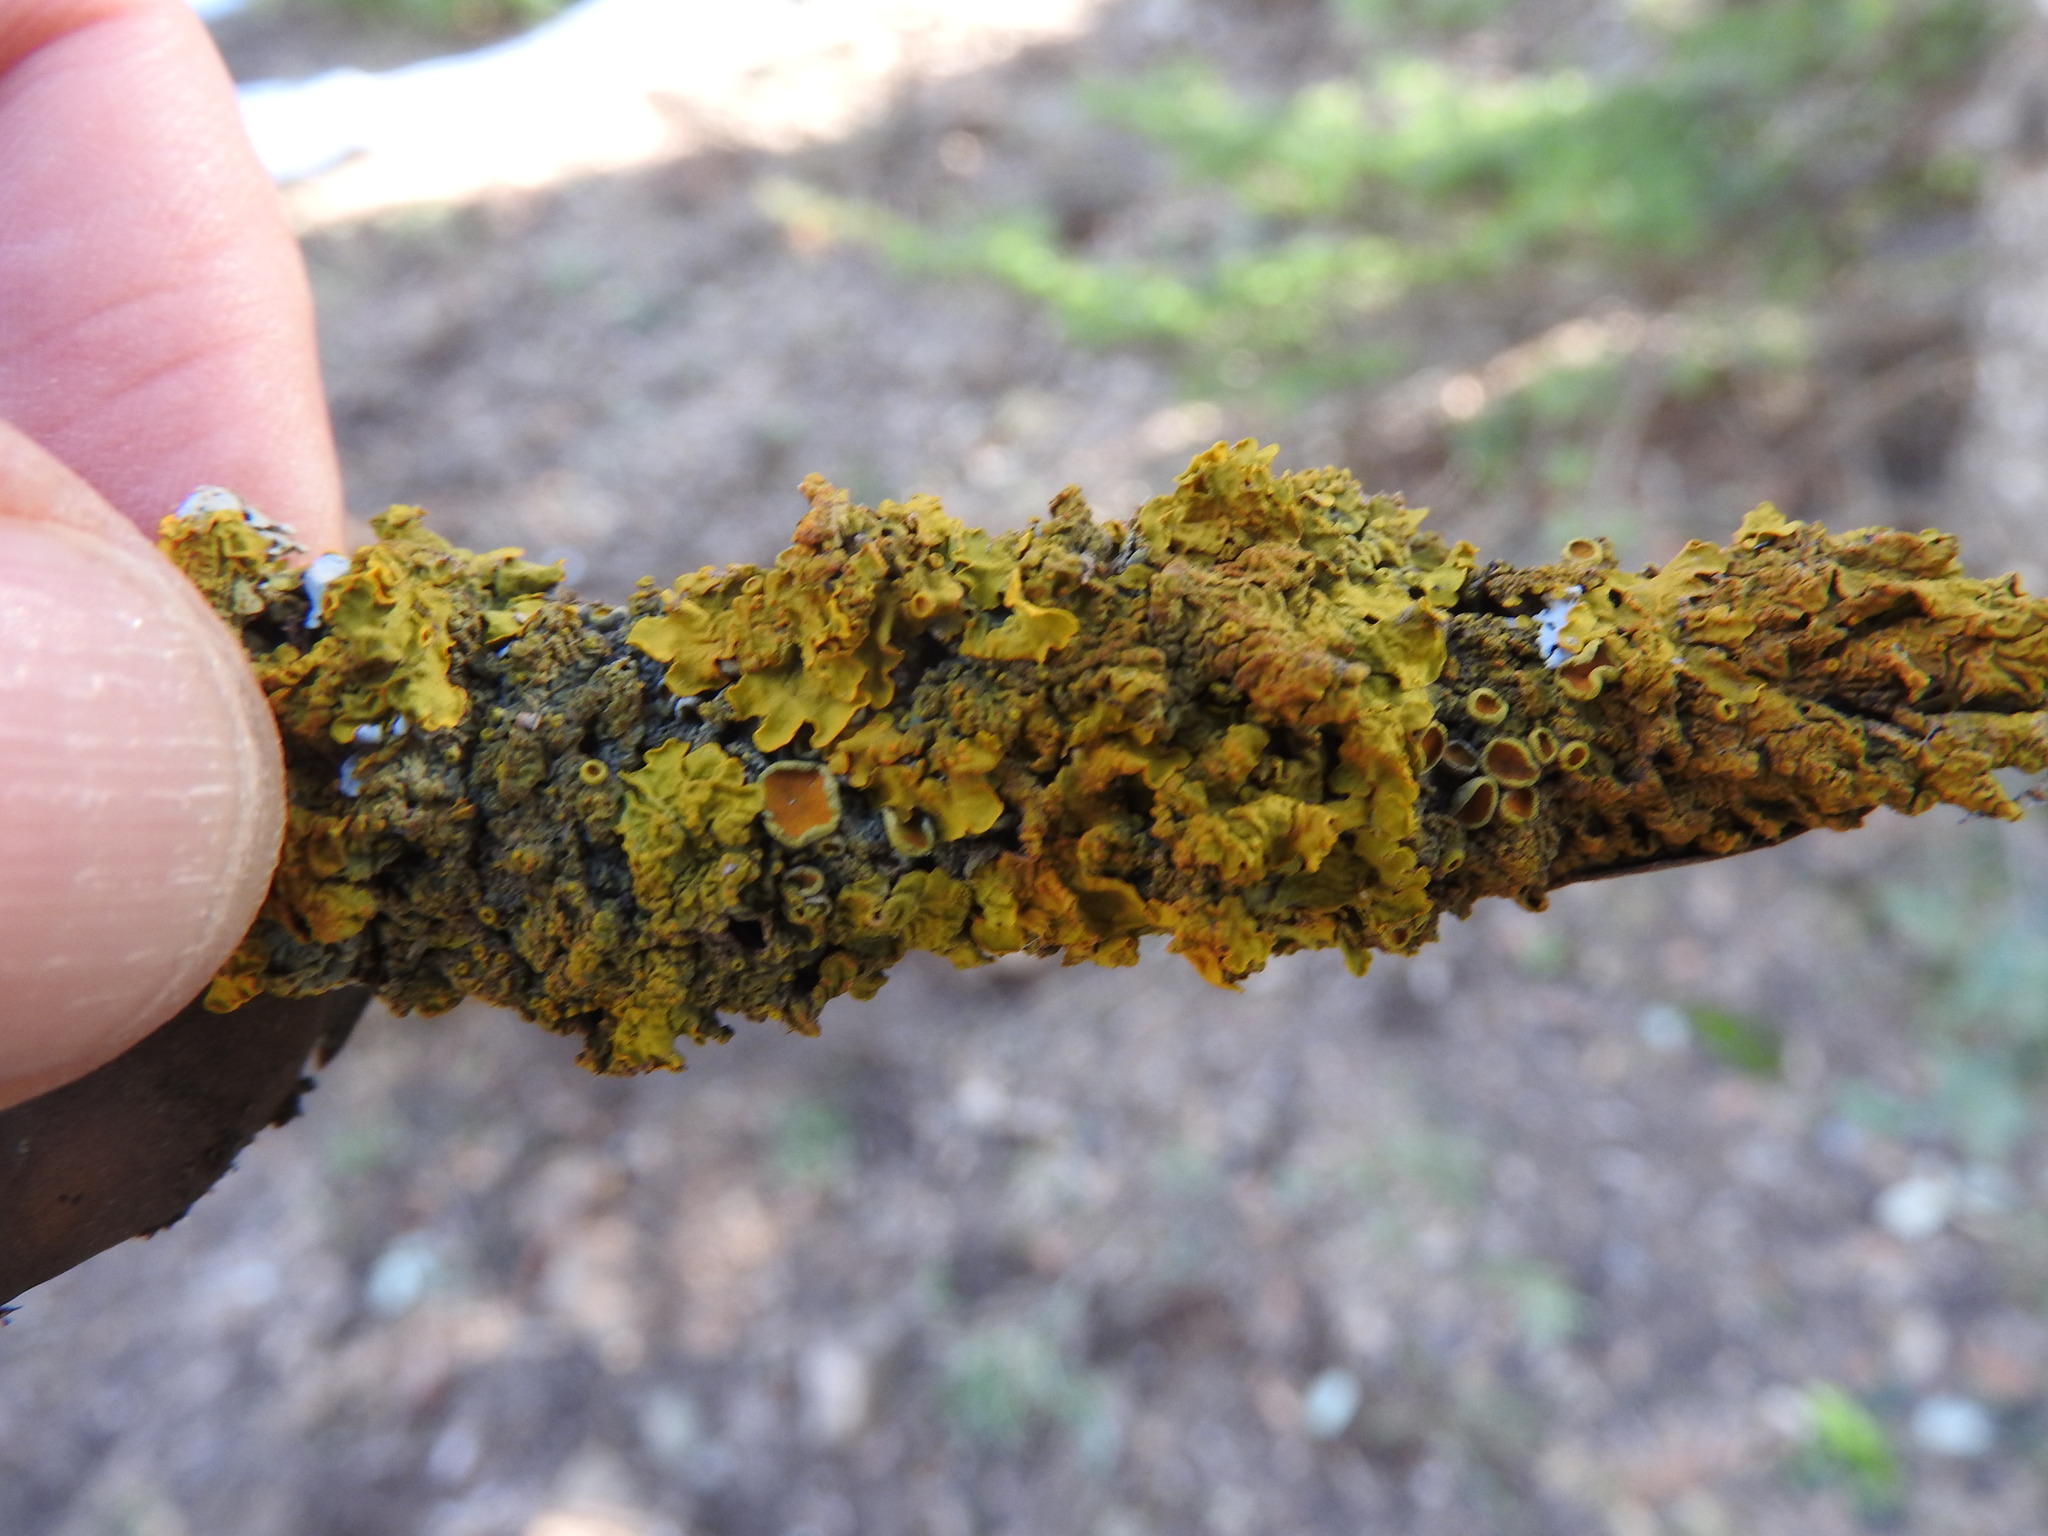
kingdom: Fungi
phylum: Ascomycota
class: Lecanoromycetes
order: Teloschistales
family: Teloschistaceae
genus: Xanthoria
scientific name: Xanthoria parietina
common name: Common orange lichen
